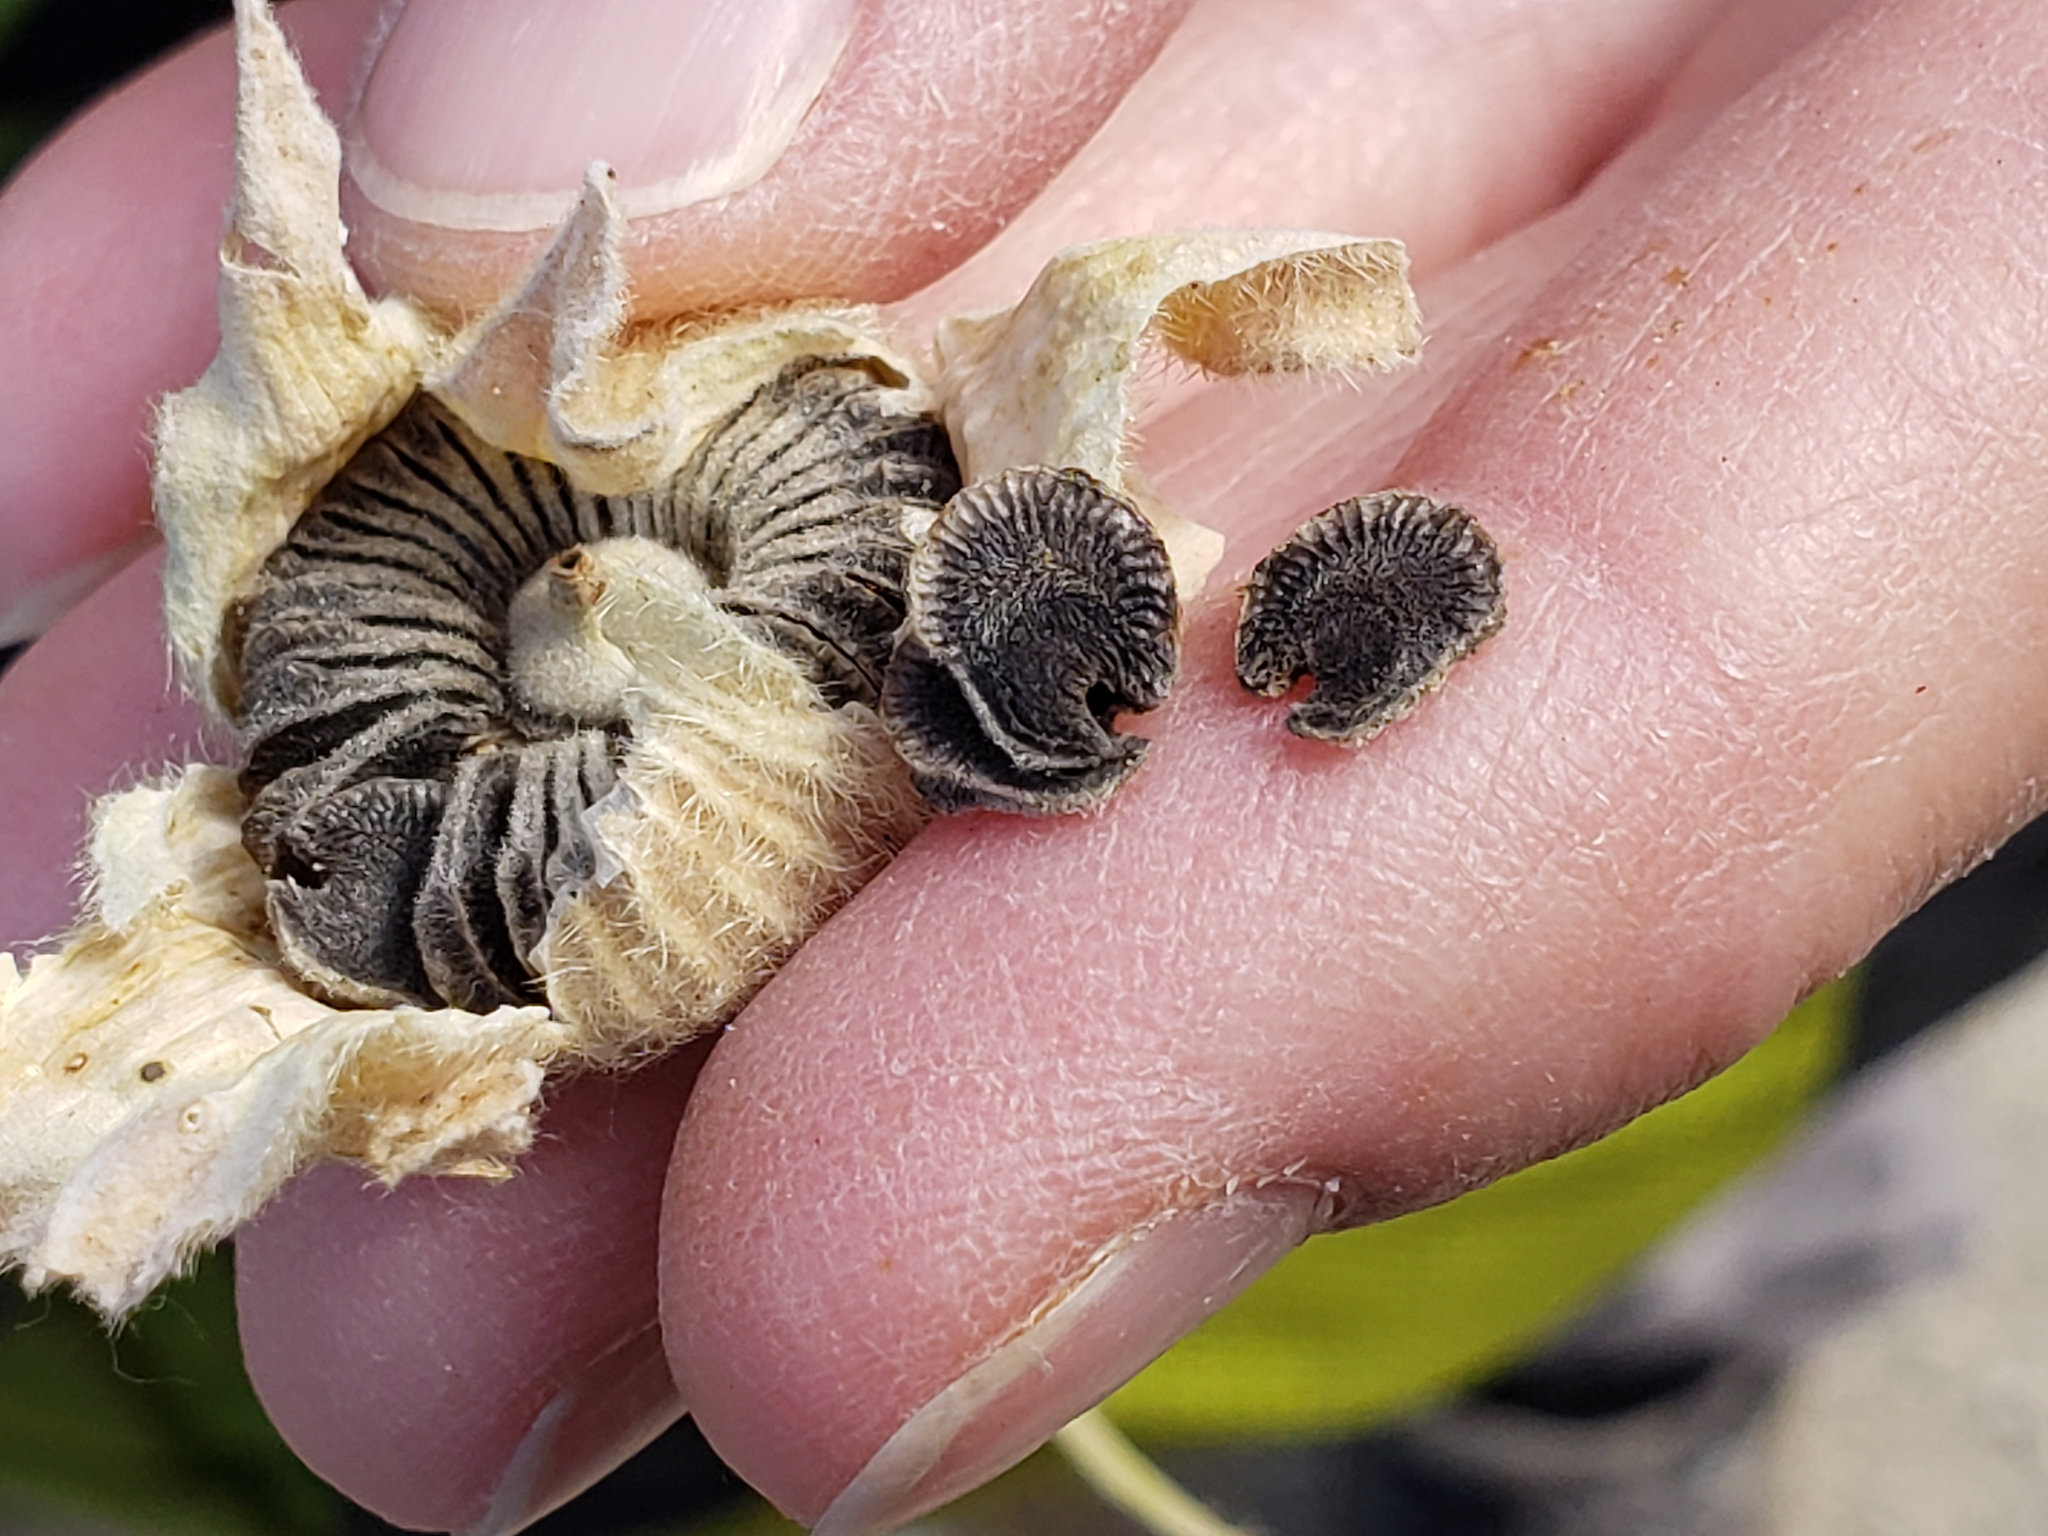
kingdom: Plantae
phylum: Tracheophyta
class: Magnoliopsida
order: Malvales
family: Malvaceae
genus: Alcea
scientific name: Alcea rosea
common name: Hollyhock
